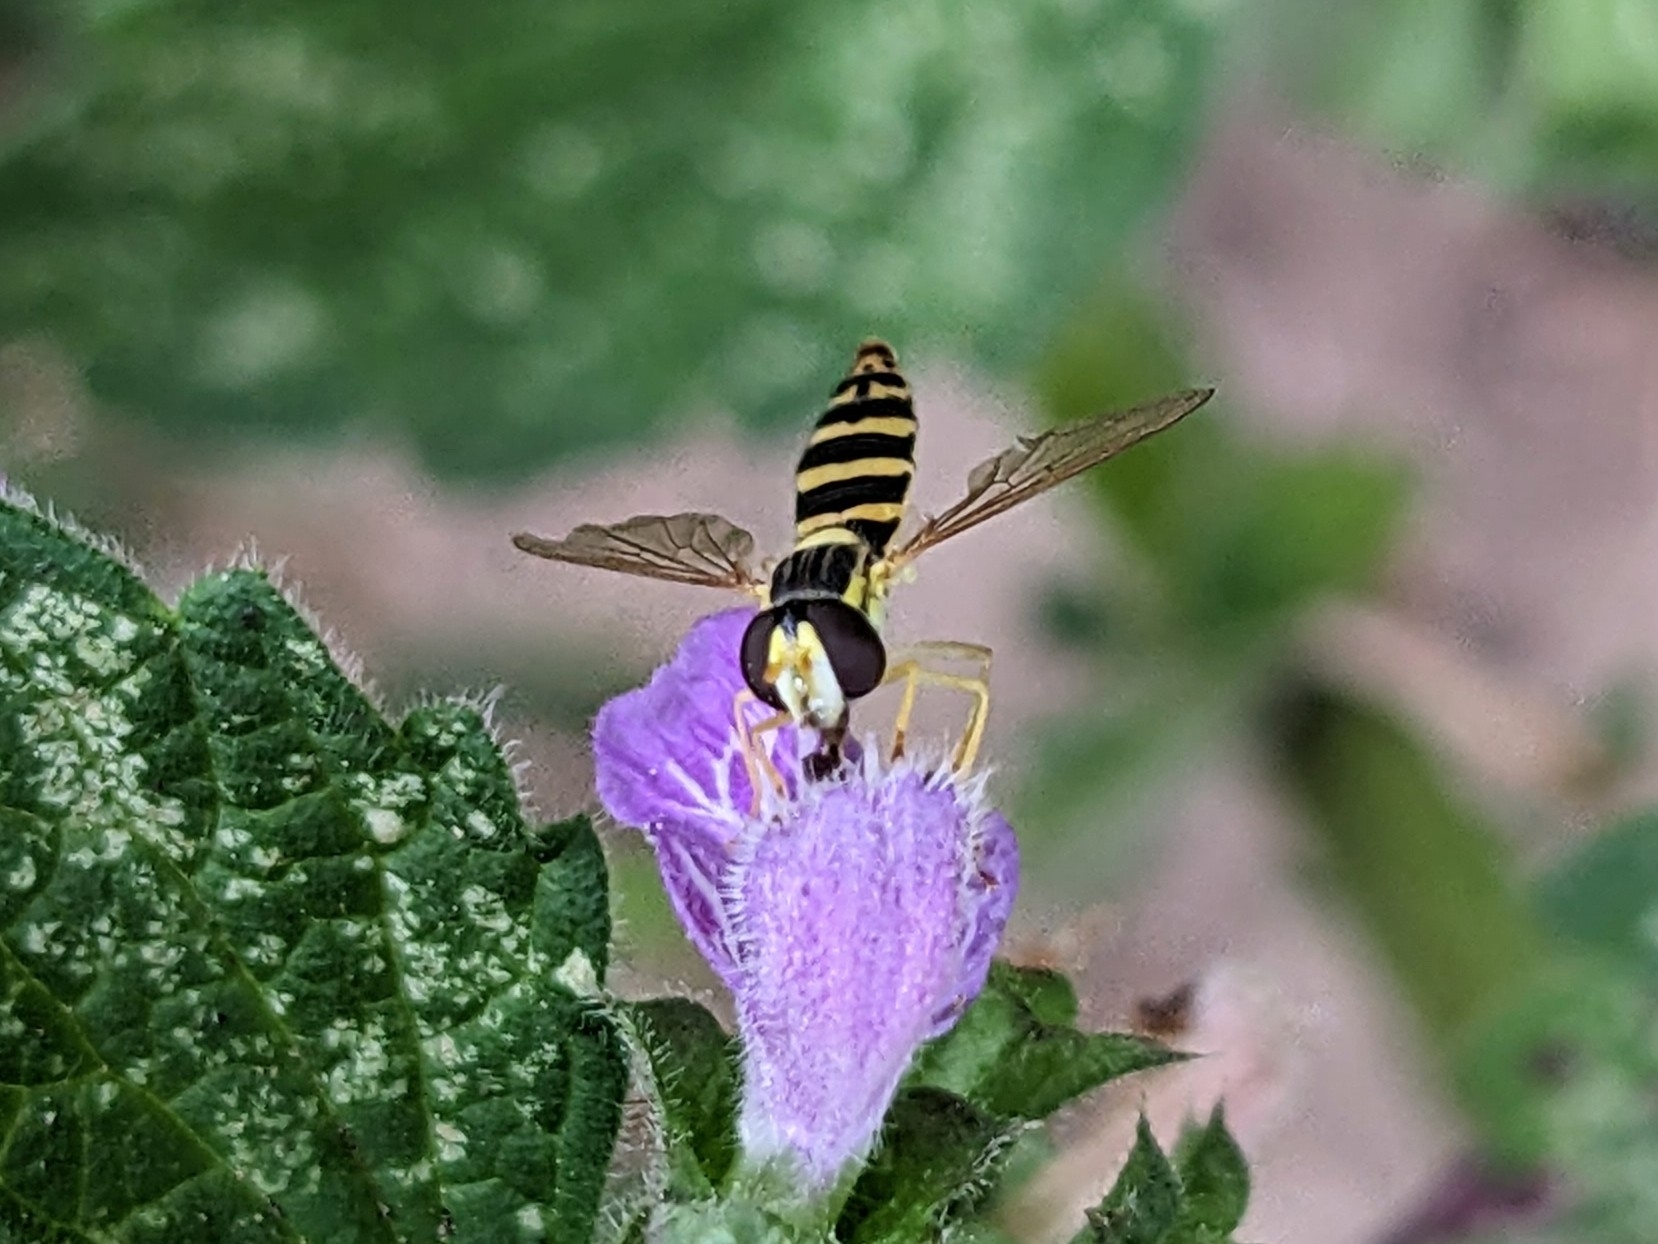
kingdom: Animalia
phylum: Arthropoda
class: Insecta
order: Diptera
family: Syrphidae
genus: Sphaerophoria
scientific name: Sphaerophoria
